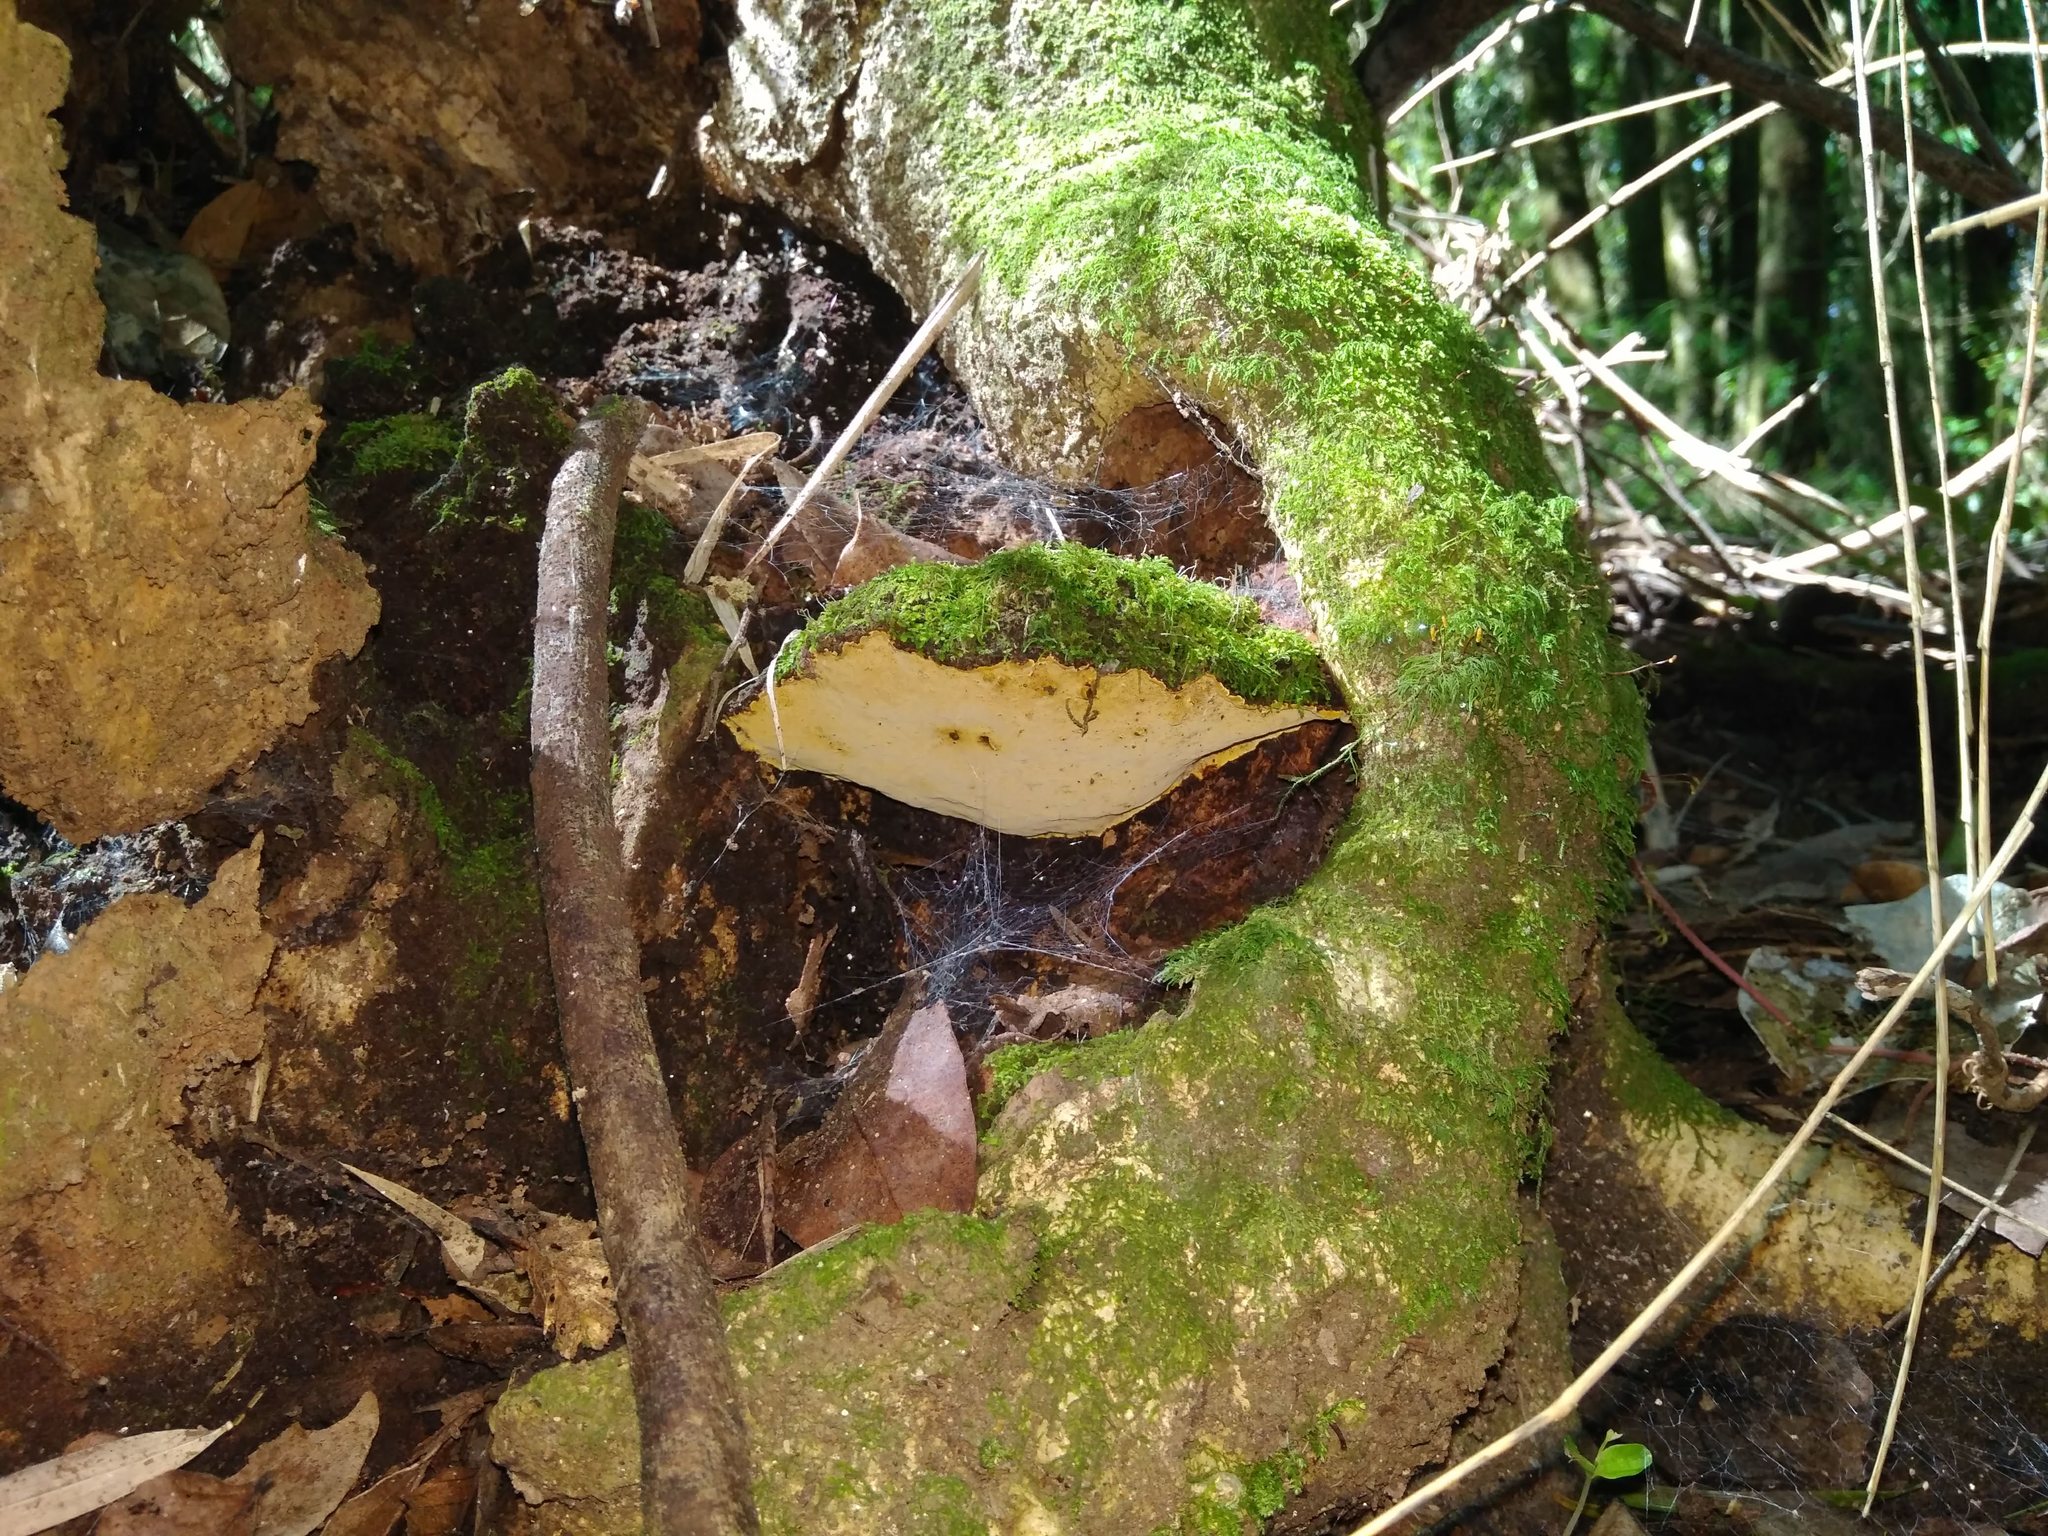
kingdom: Fungi
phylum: Basidiomycota
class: Agaricomycetes
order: Hymenochaetales
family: Hymenochaetaceae
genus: Phylloporia
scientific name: Phylloporia boldo
